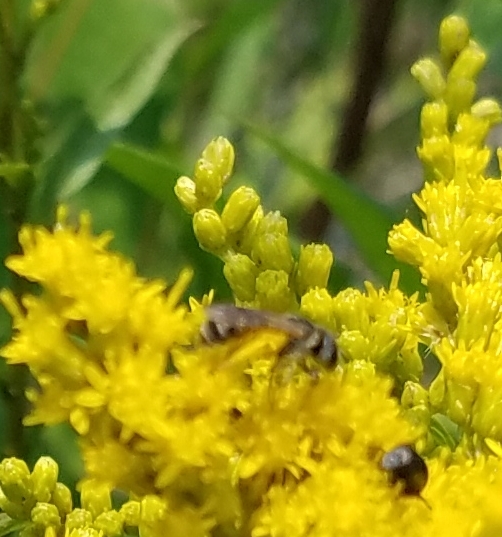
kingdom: Animalia
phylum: Arthropoda
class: Insecta
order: Hymenoptera
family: Halictidae
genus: Halictus
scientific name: Halictus ligatus
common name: Ligated furrow bee
